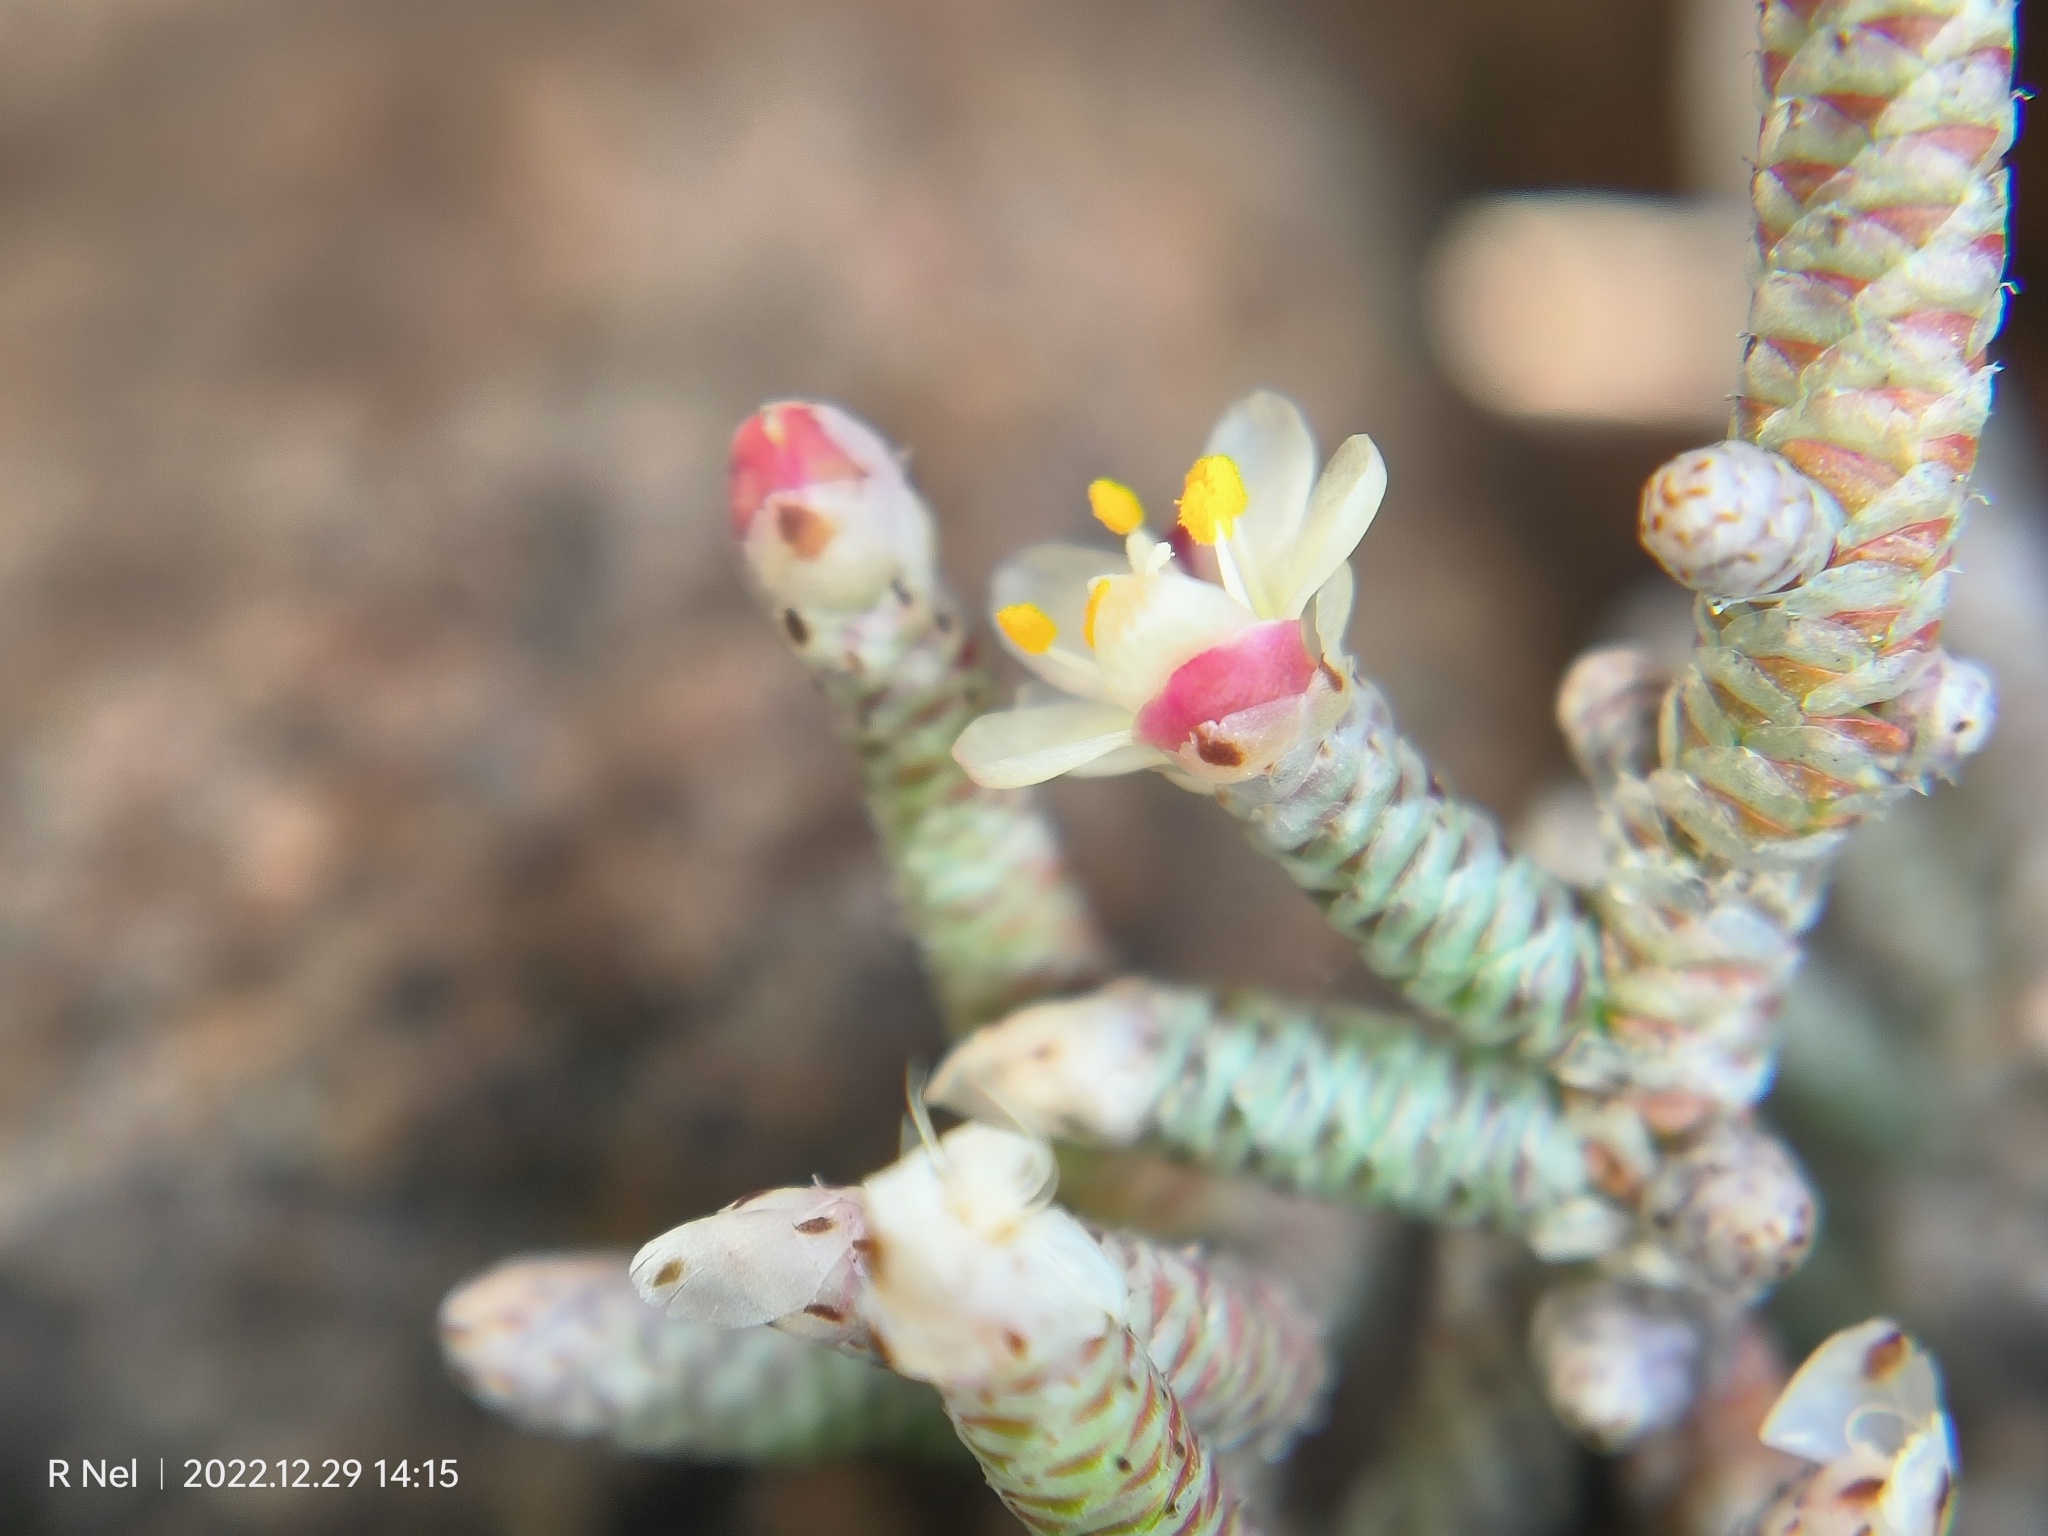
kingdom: Plantae
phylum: Tracheophyta
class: Magnoliopsida
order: Caryophyllales
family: Anacampserotaceae
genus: Avonia
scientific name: Avonia ustulata
